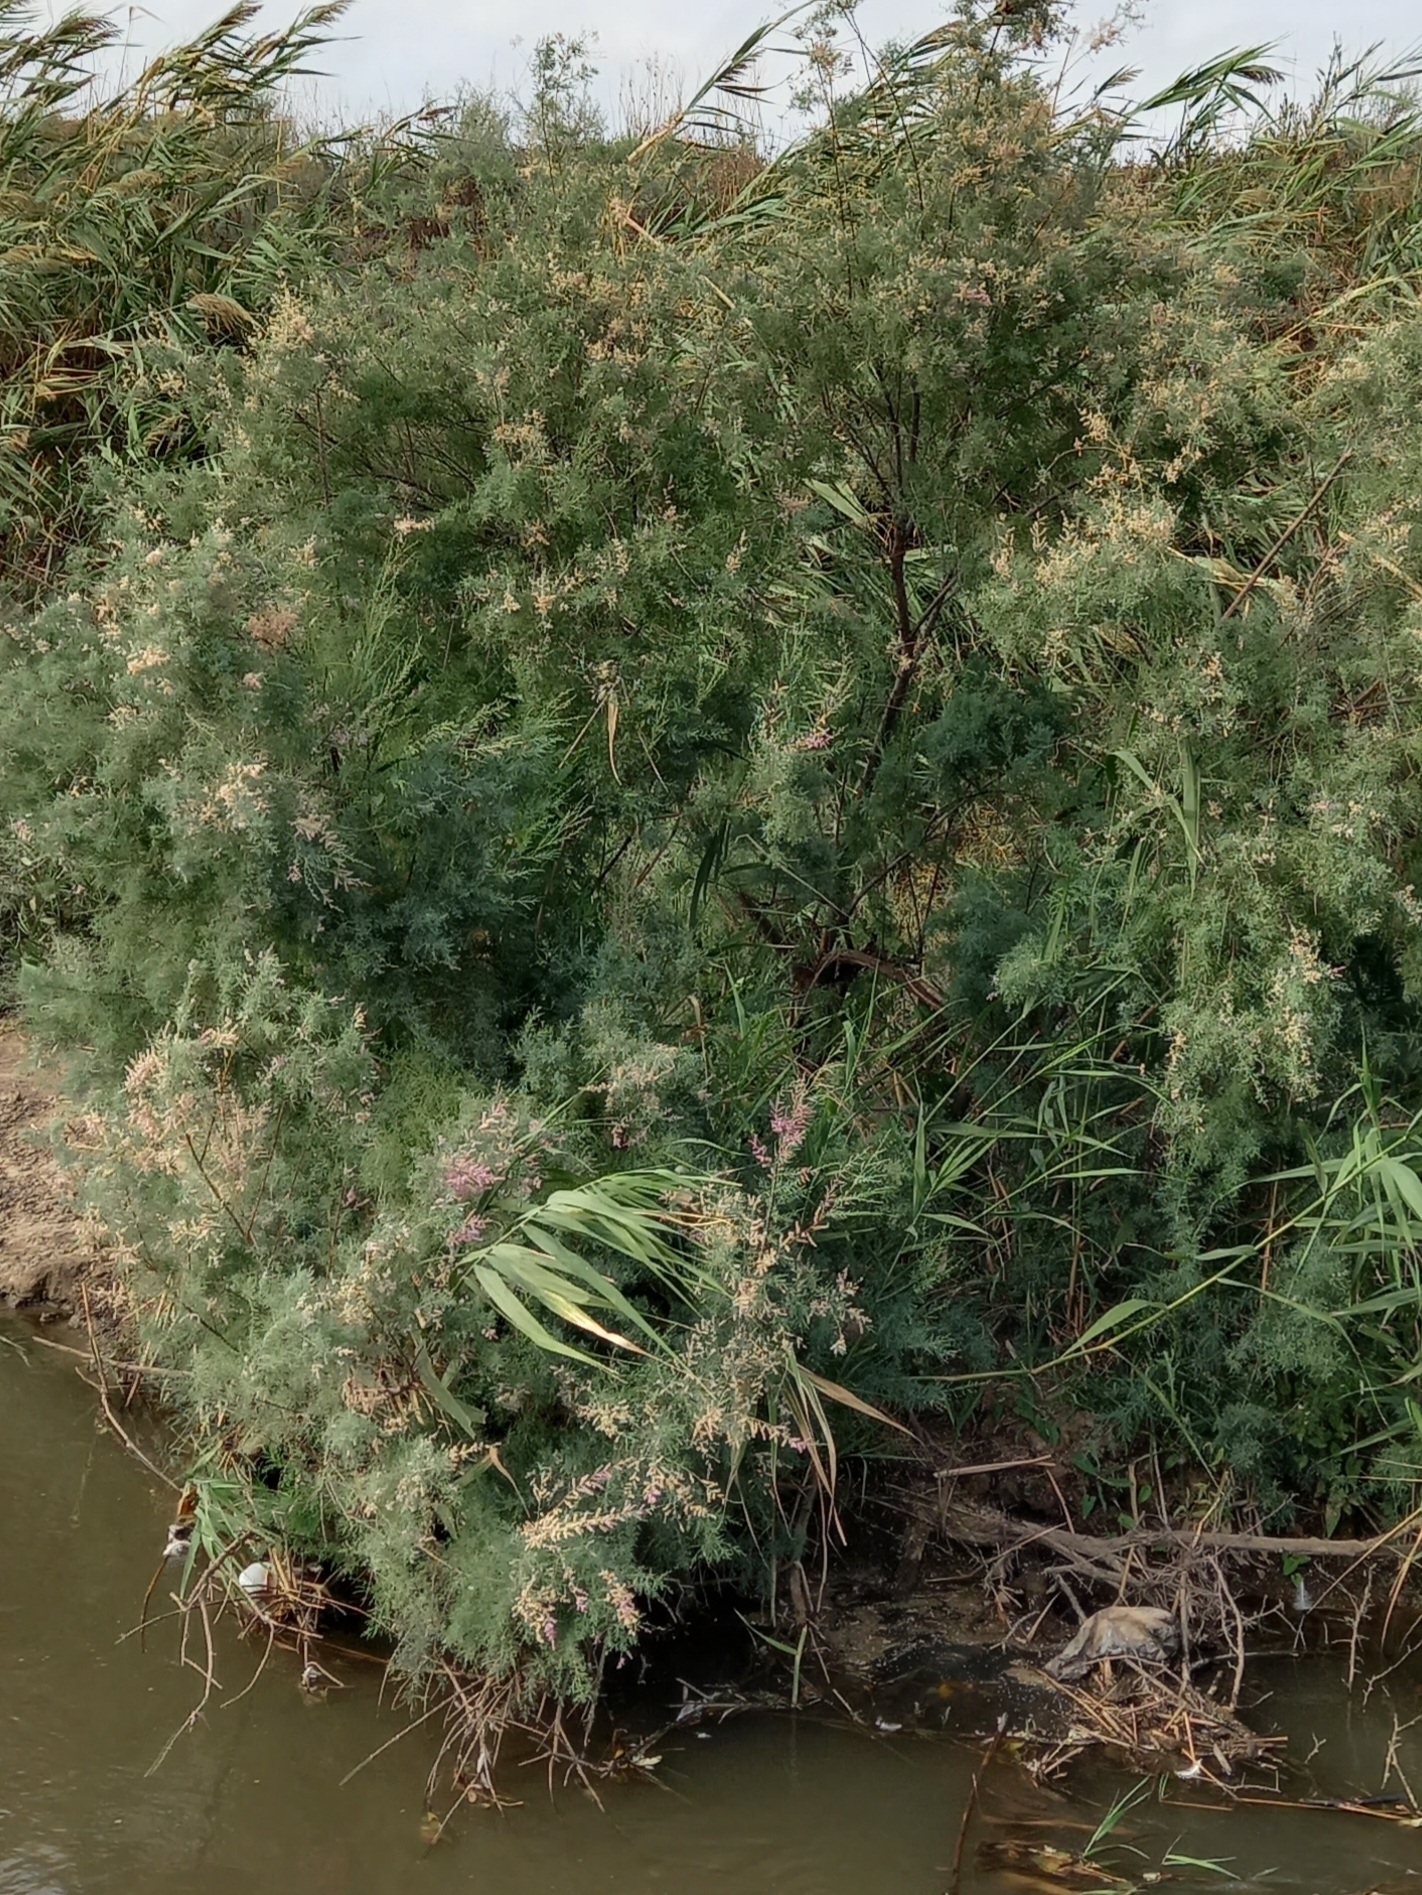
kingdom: Plantae
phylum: Tracheophyta
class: Magnoliopsida
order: Caryophyllales
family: Tamaricaceae
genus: Tamarix
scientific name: Tamarix ramosissima
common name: Pink tamarisk
